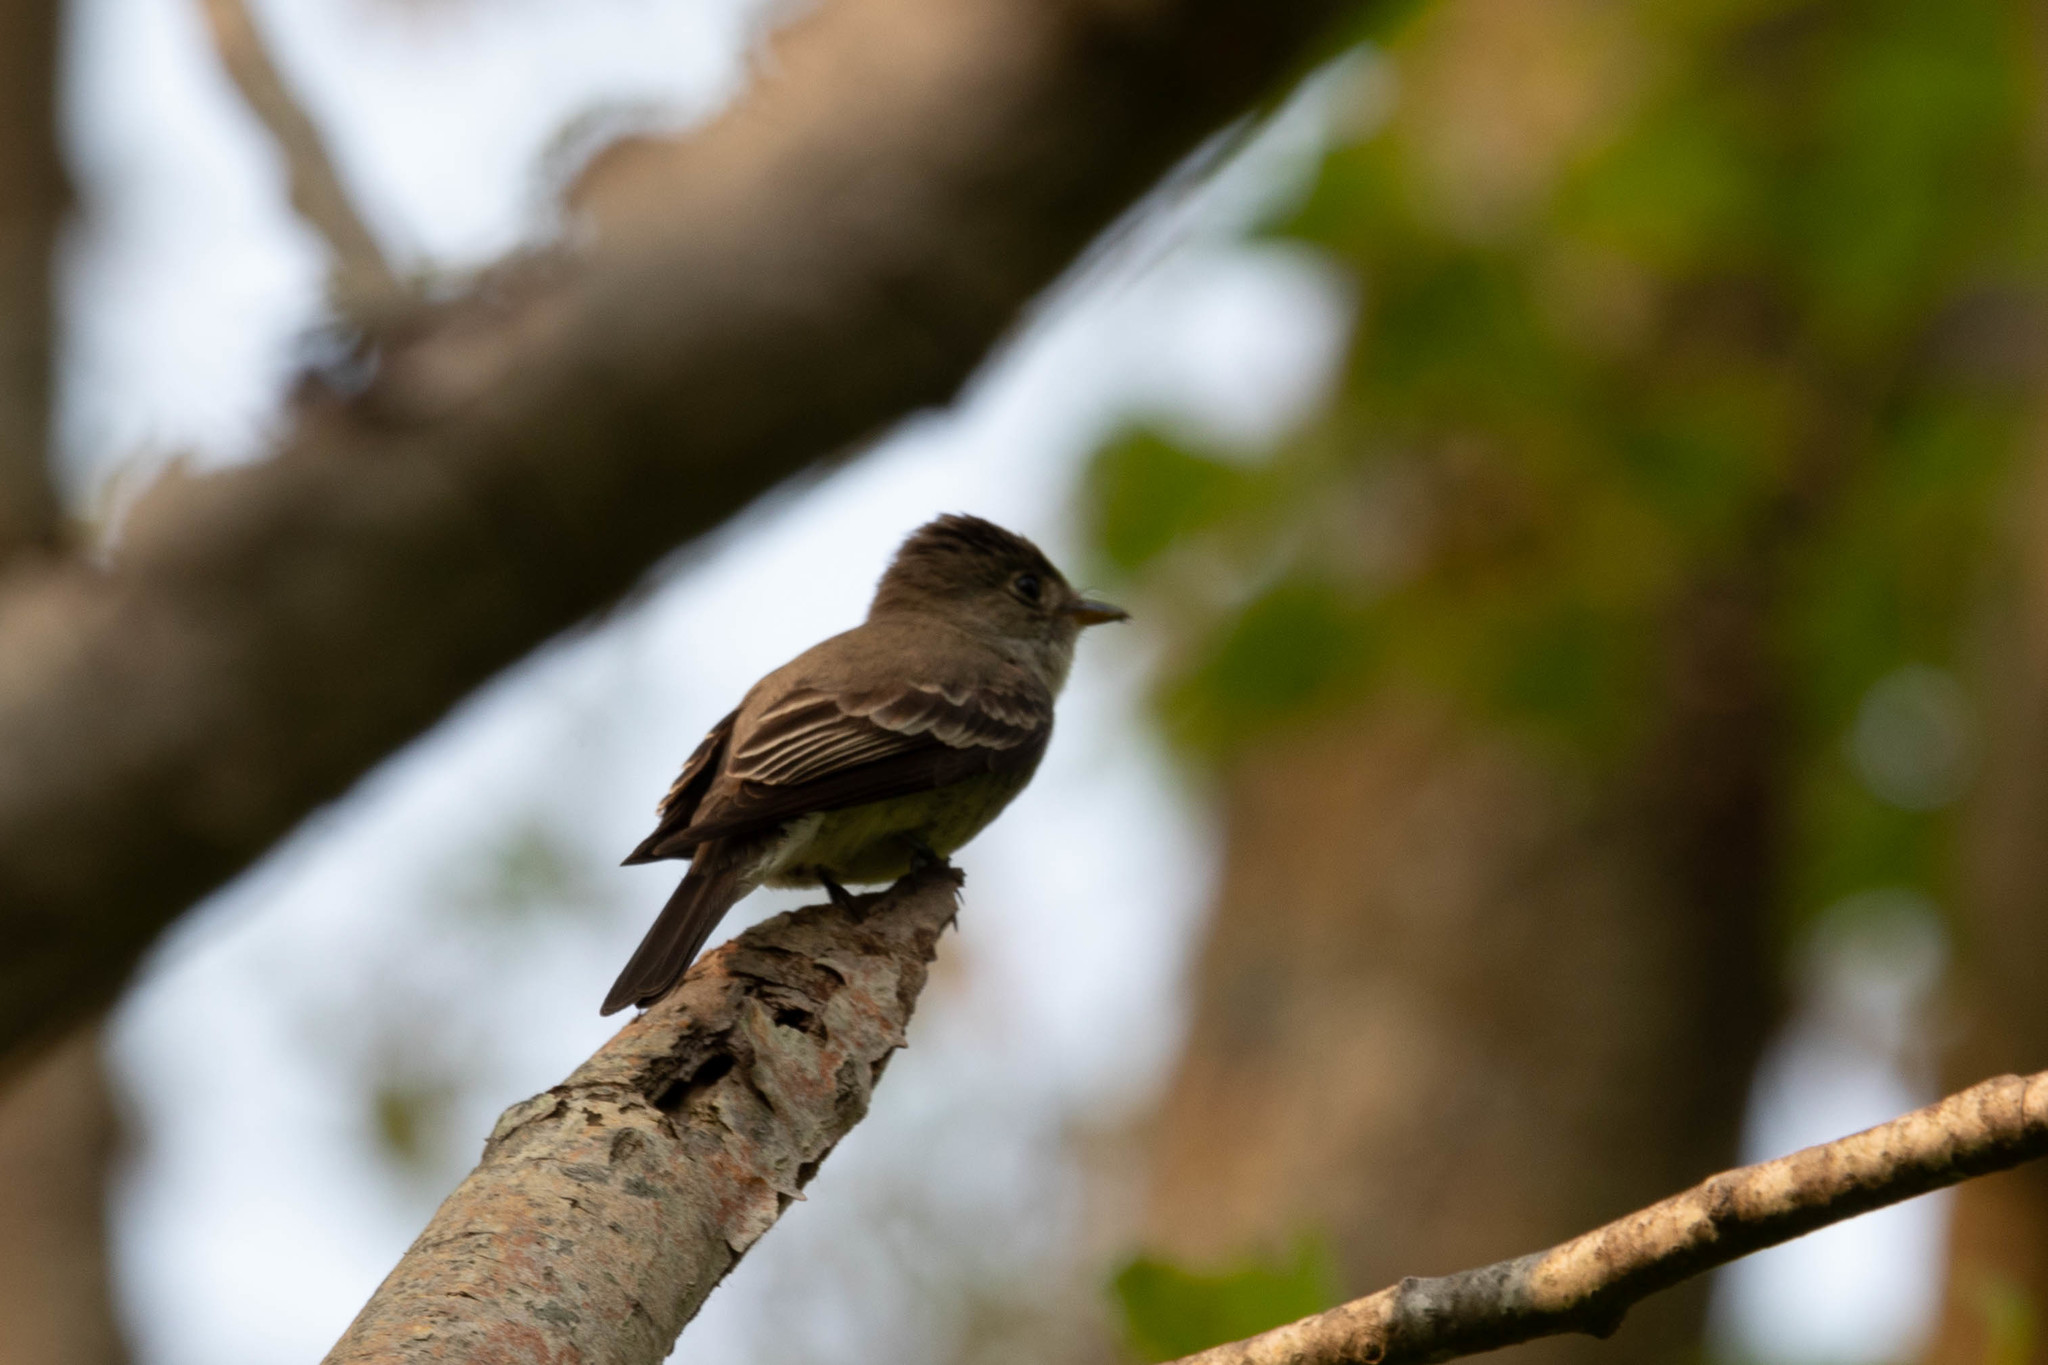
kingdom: Animalia
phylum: Chordata
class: Aves
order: Passeriformes
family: Tyrannidae
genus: Contopus
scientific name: Contopus virens
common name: Eastern wood-pewee
